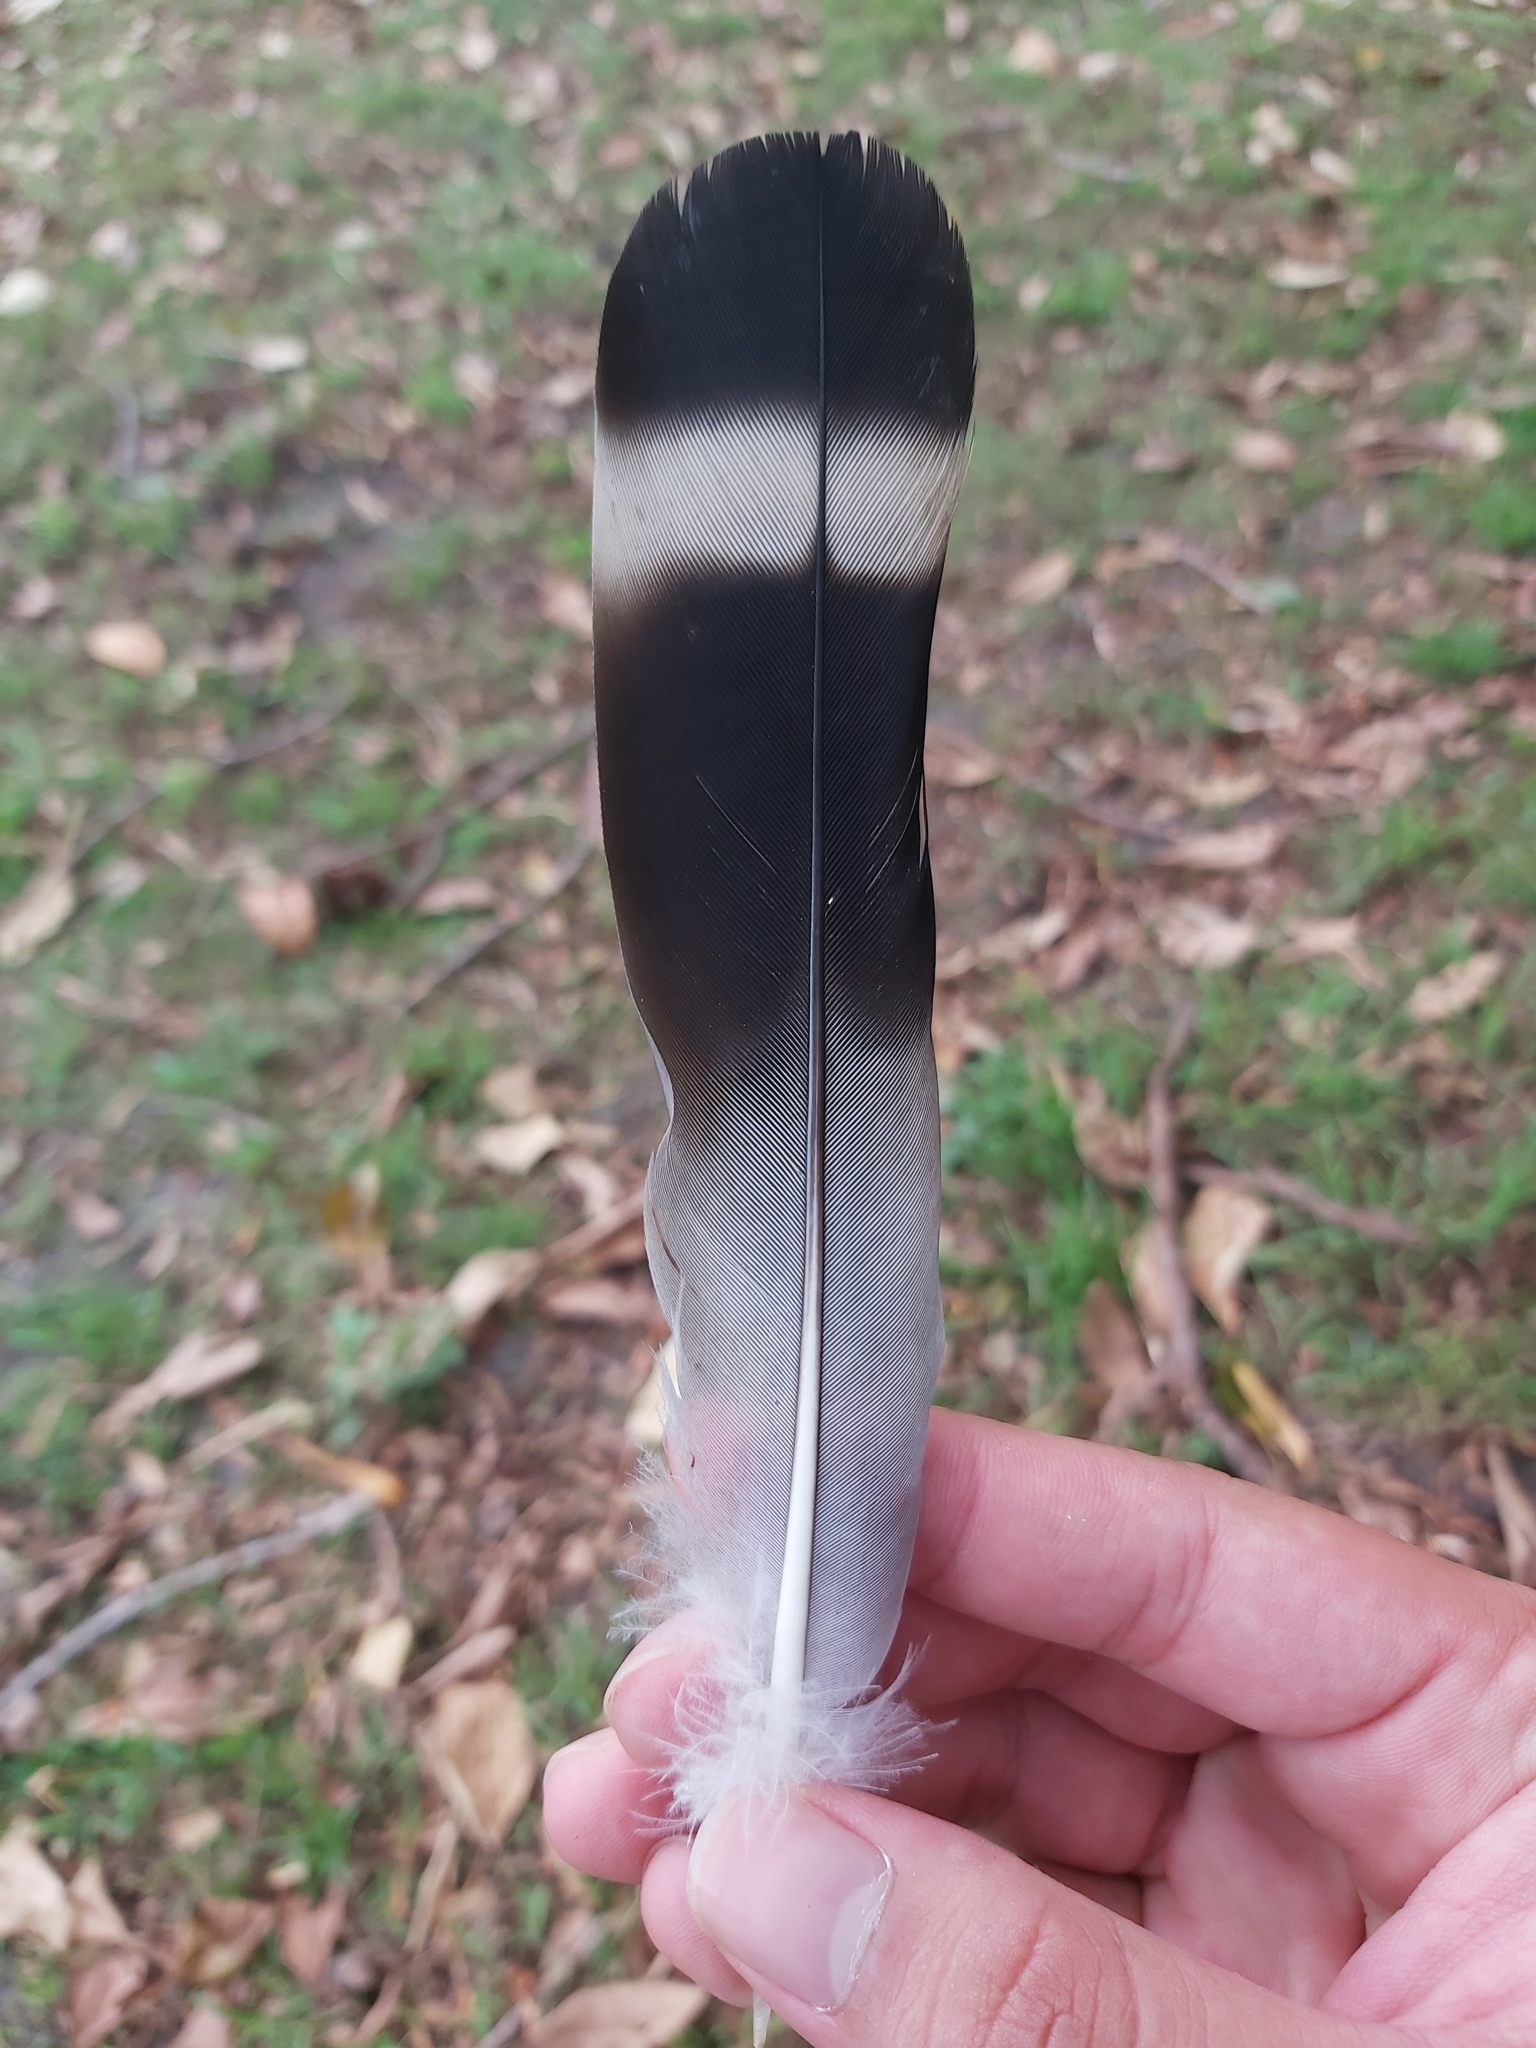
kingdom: Animalia
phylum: Chordata
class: Aves
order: Columbiformes
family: Columbidae
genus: Lopholaimus
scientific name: Lopholaimus antarcticus
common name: Topknot pigeon
